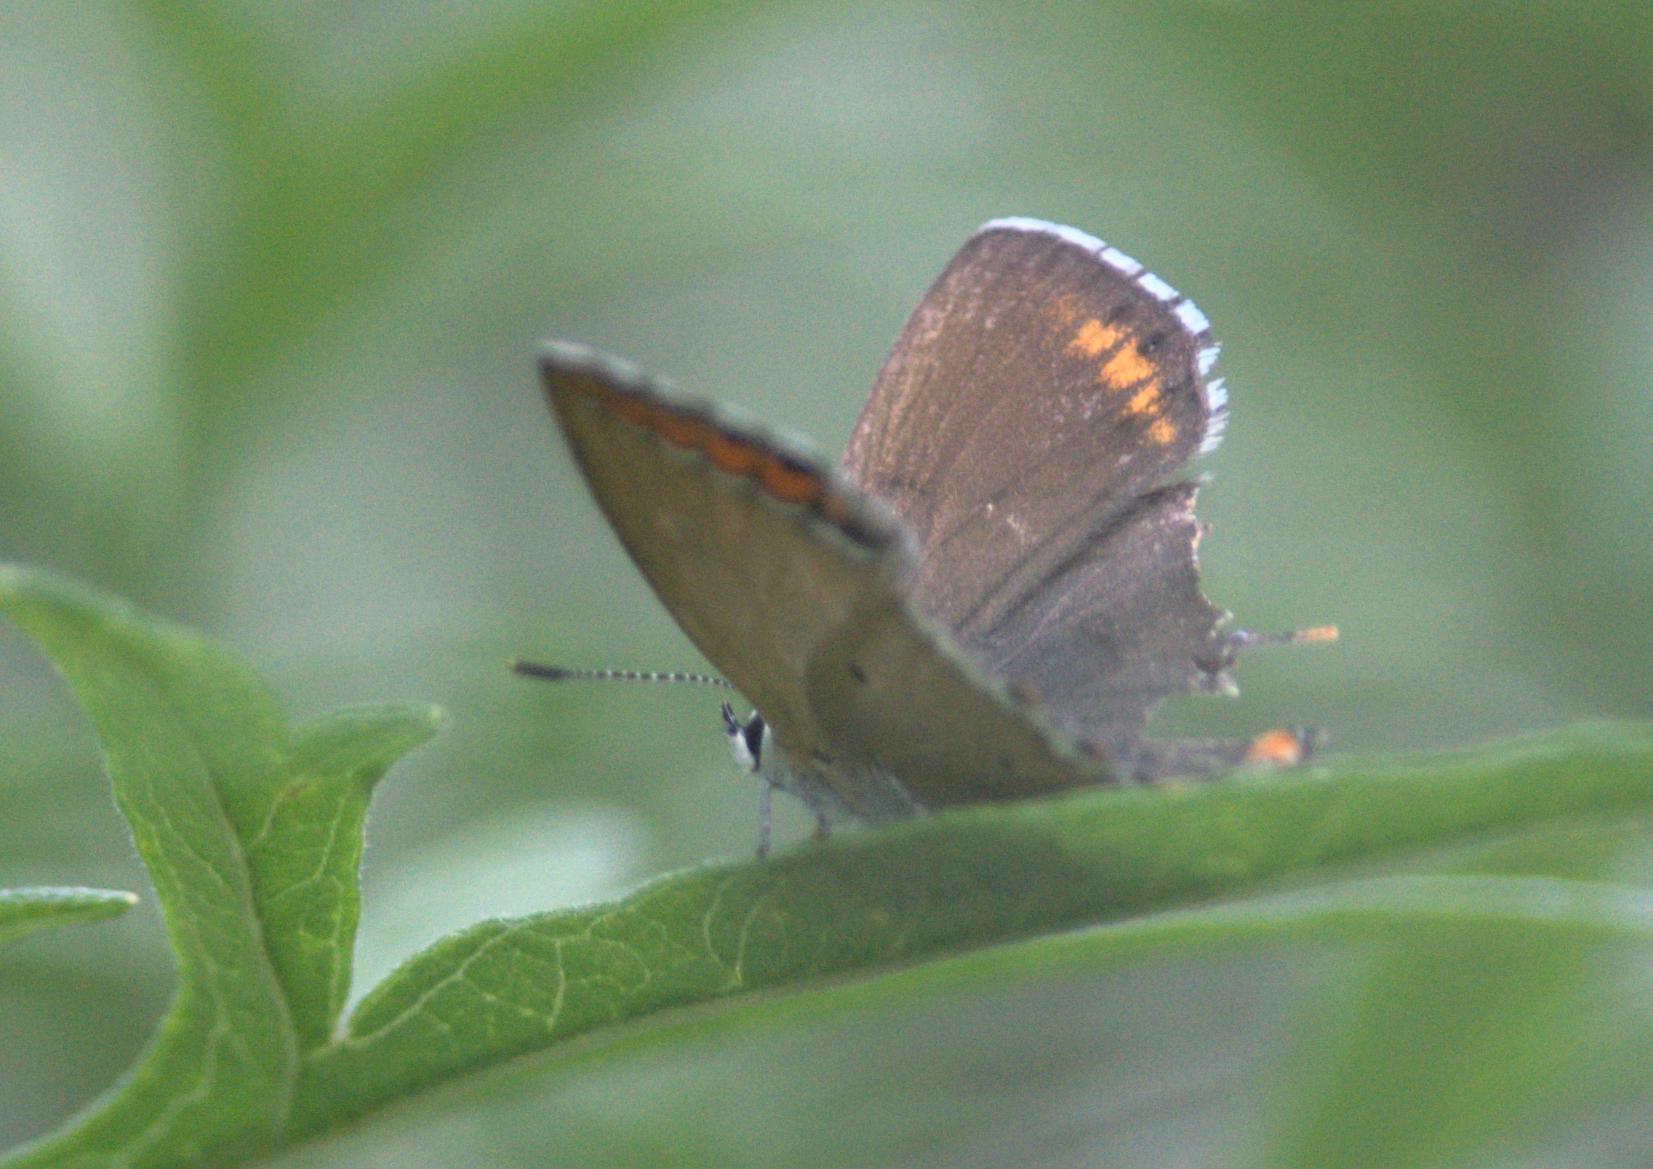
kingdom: Animalia
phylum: Arthropoda
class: Insecta
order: Lepidoptera
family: Lycaenidae
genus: Heliophorus
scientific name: Heliophorus sena
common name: Sorrel sapphire
